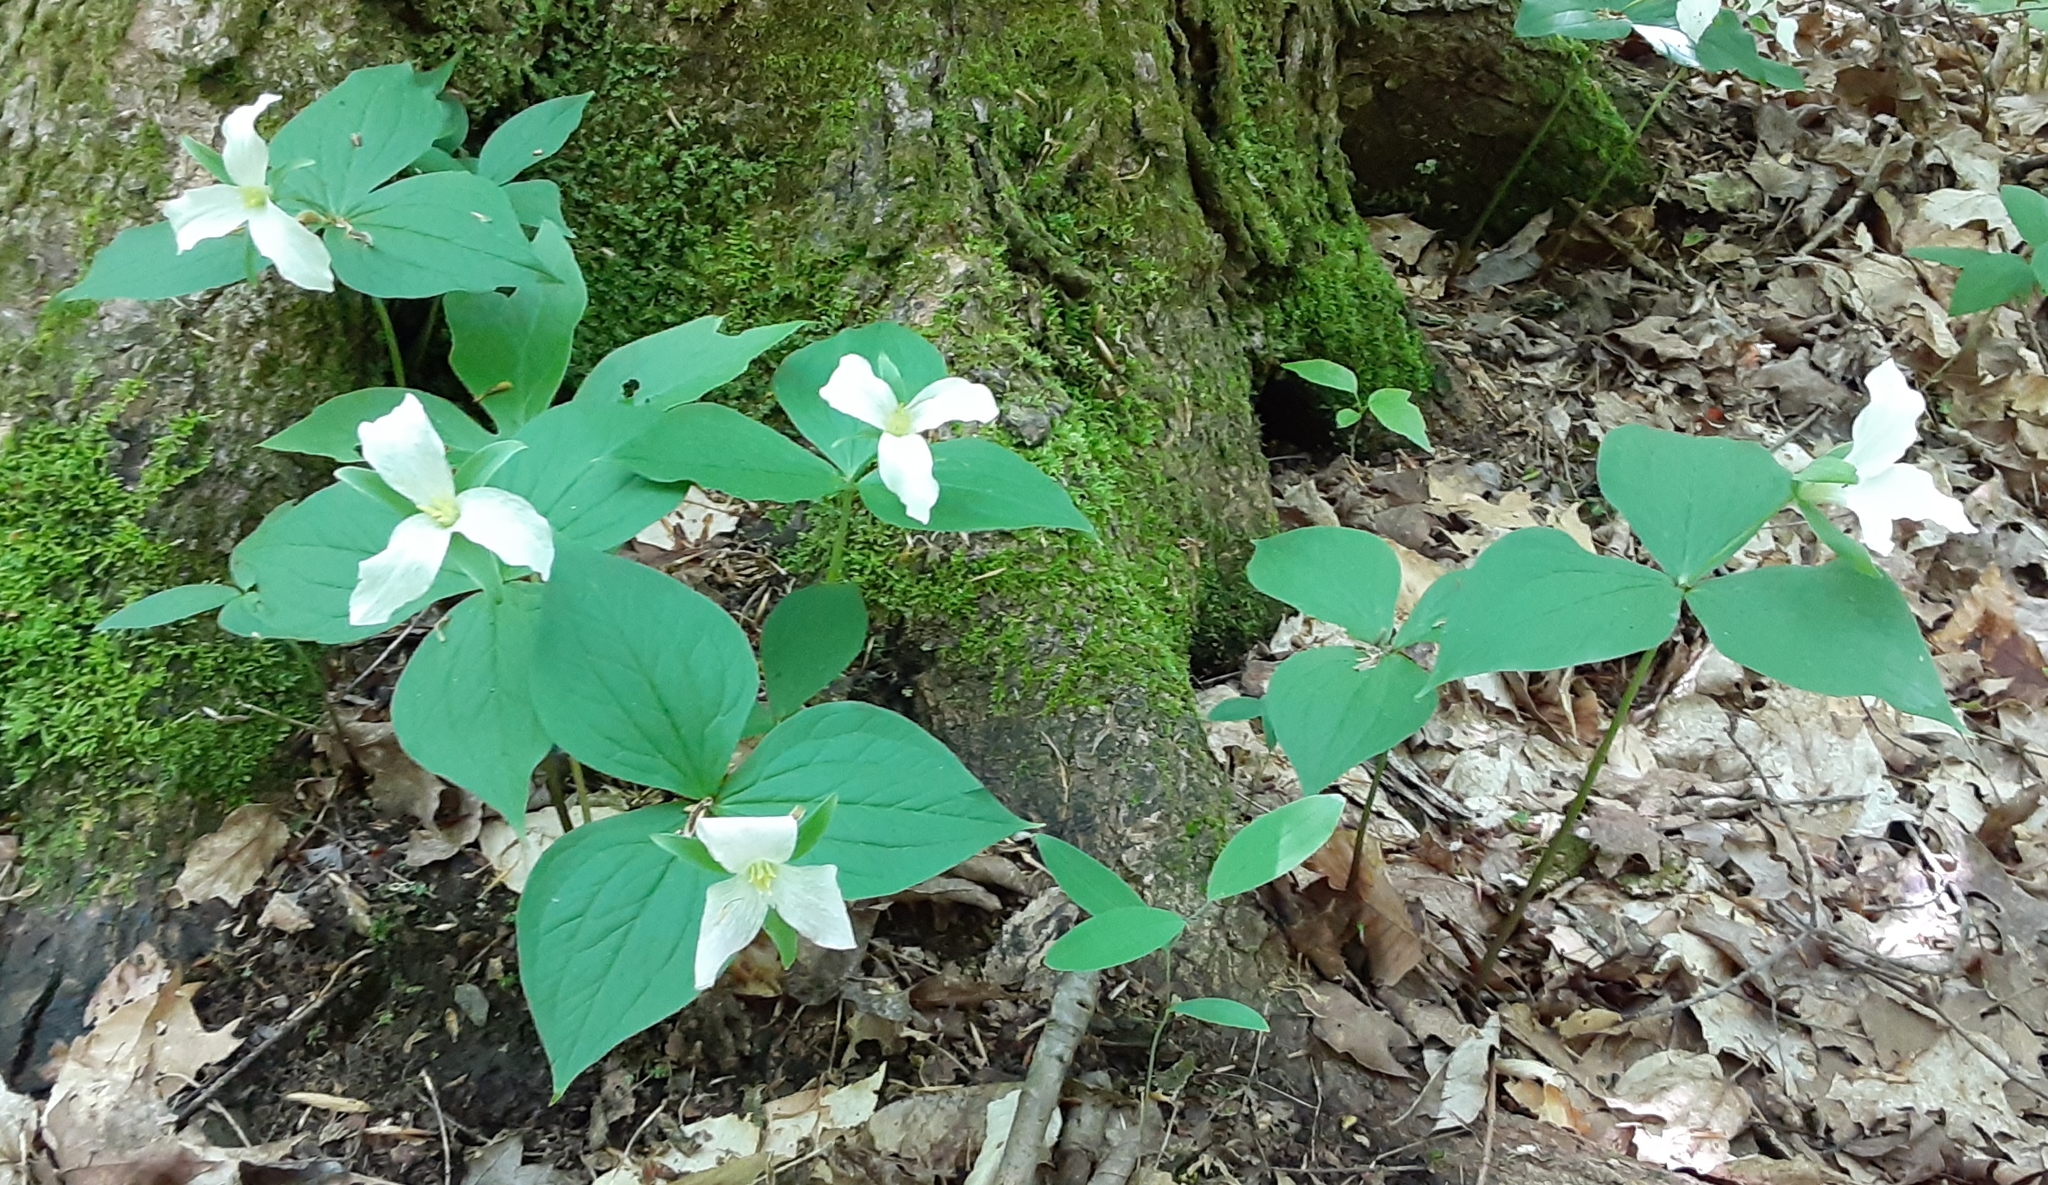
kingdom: Plantae
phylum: Tracheophyta
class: Liliopsida
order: Liliales
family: Melanthiaceae
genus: Trillium
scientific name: Trillium grandiflorum
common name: Great white trillium
